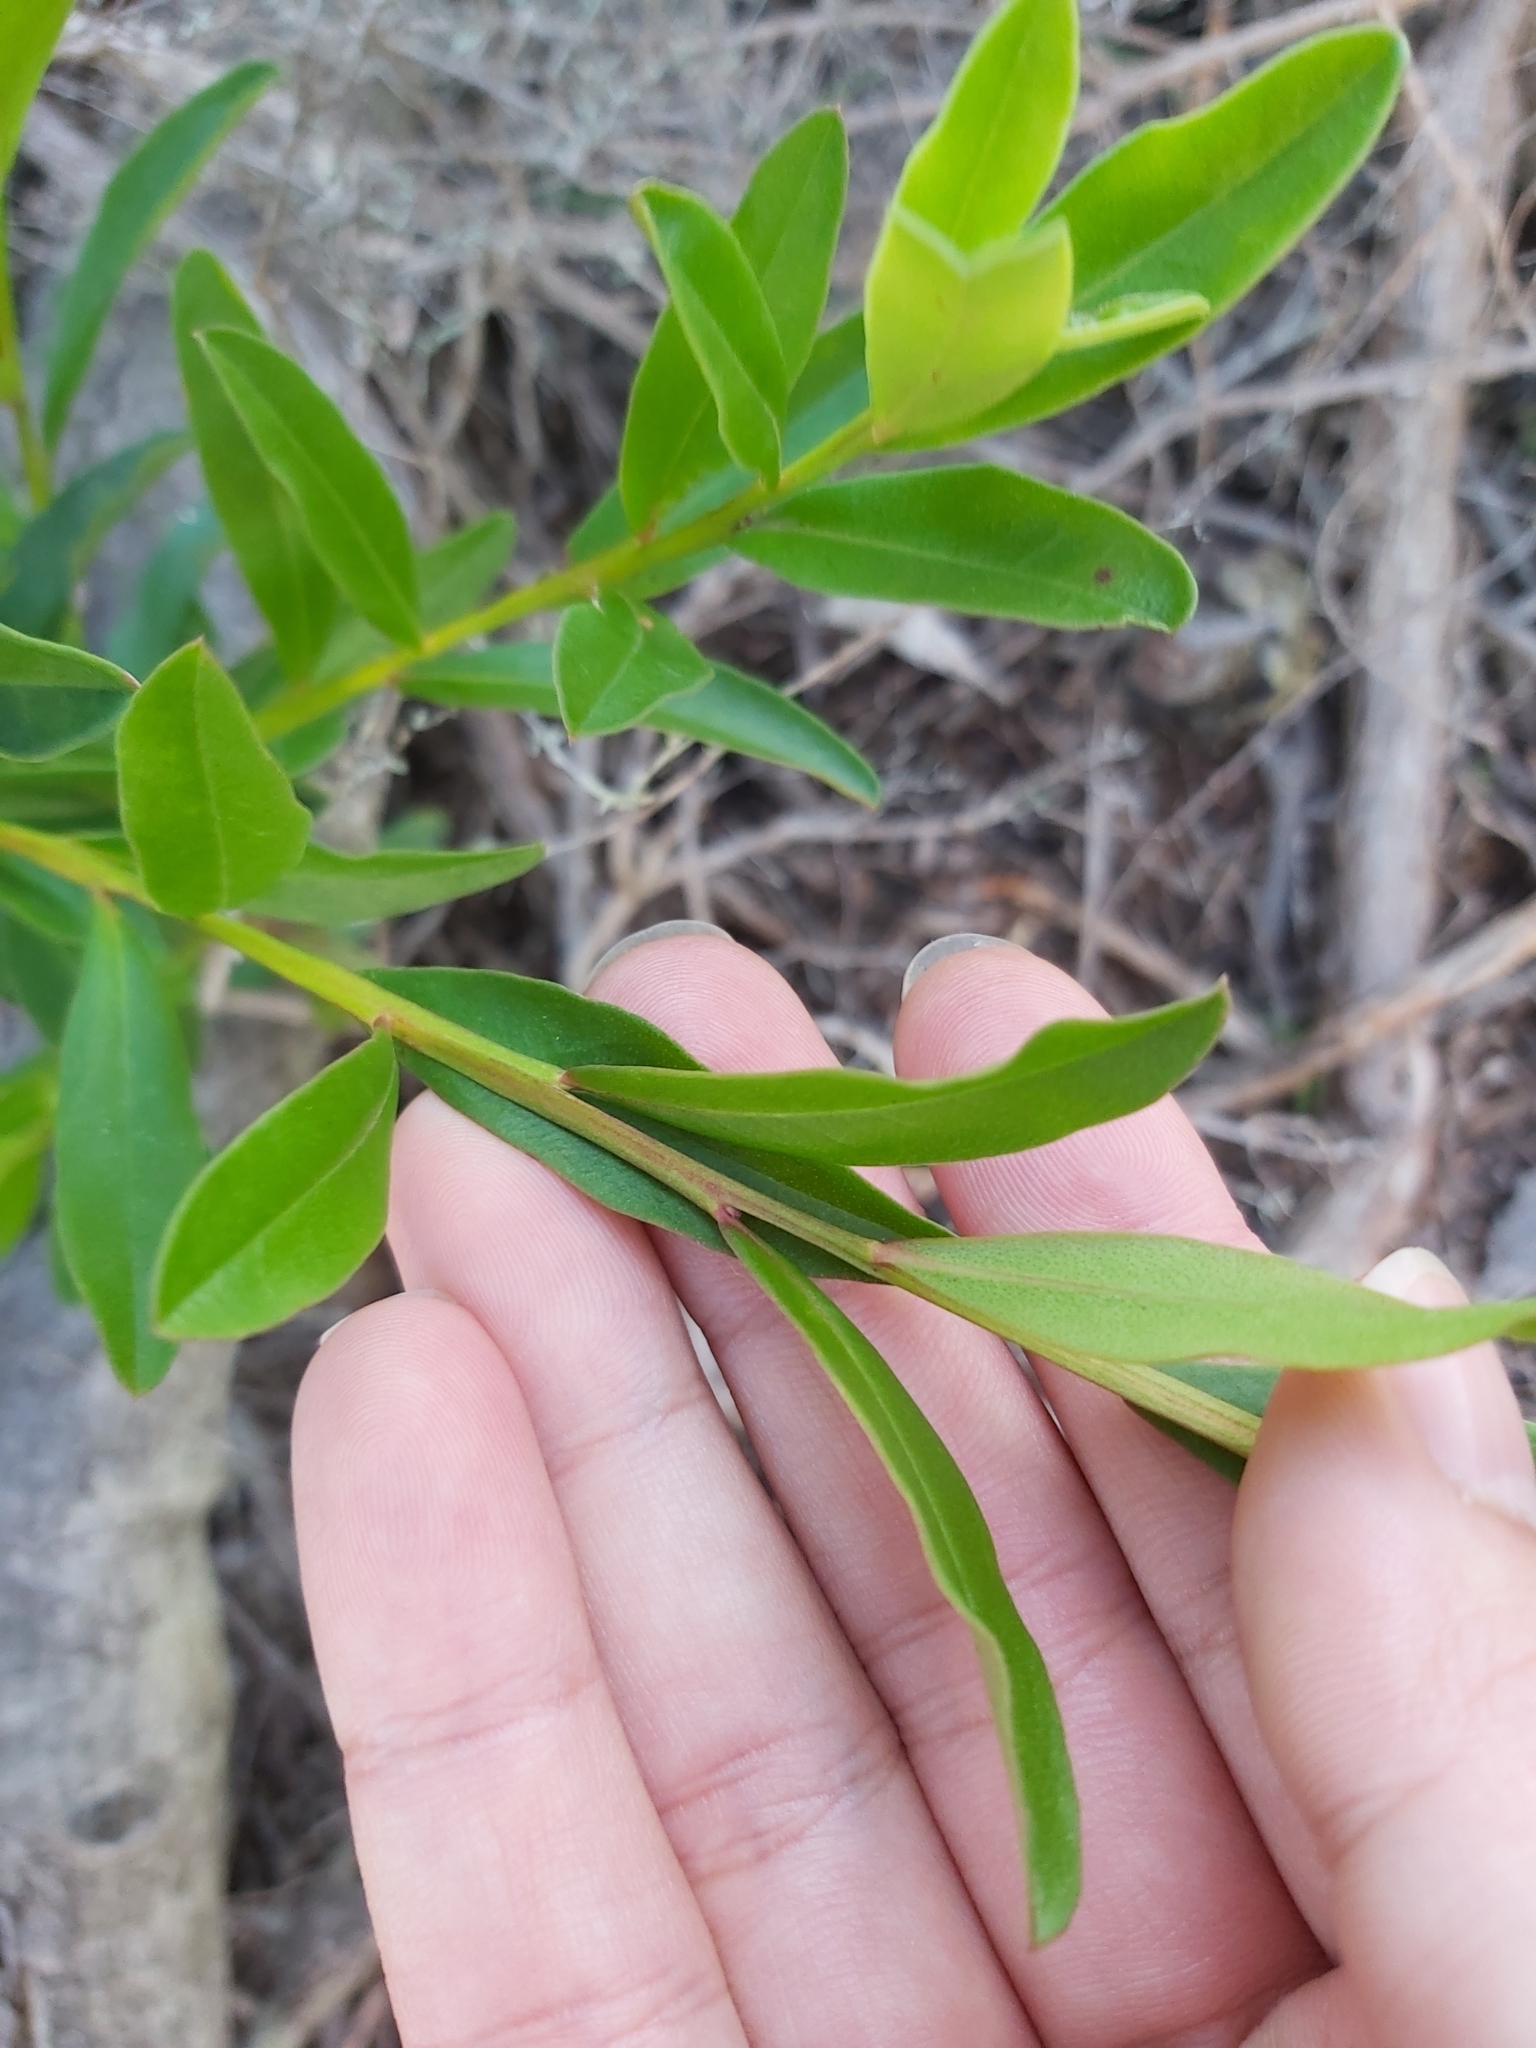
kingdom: Plantae
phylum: Tracheophyta
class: Magnoliopsida
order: Sapindales
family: Rutaceae
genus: Crowea
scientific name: Crowea saligna
